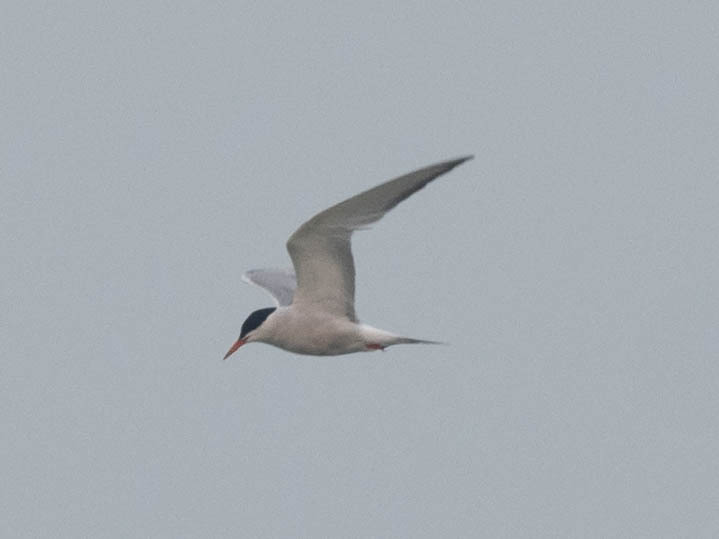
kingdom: Animalia
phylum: Chordata
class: Aves
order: Charadriiformes
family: Laridae
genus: Sterna
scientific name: Sterna hirundo
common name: Common tern
